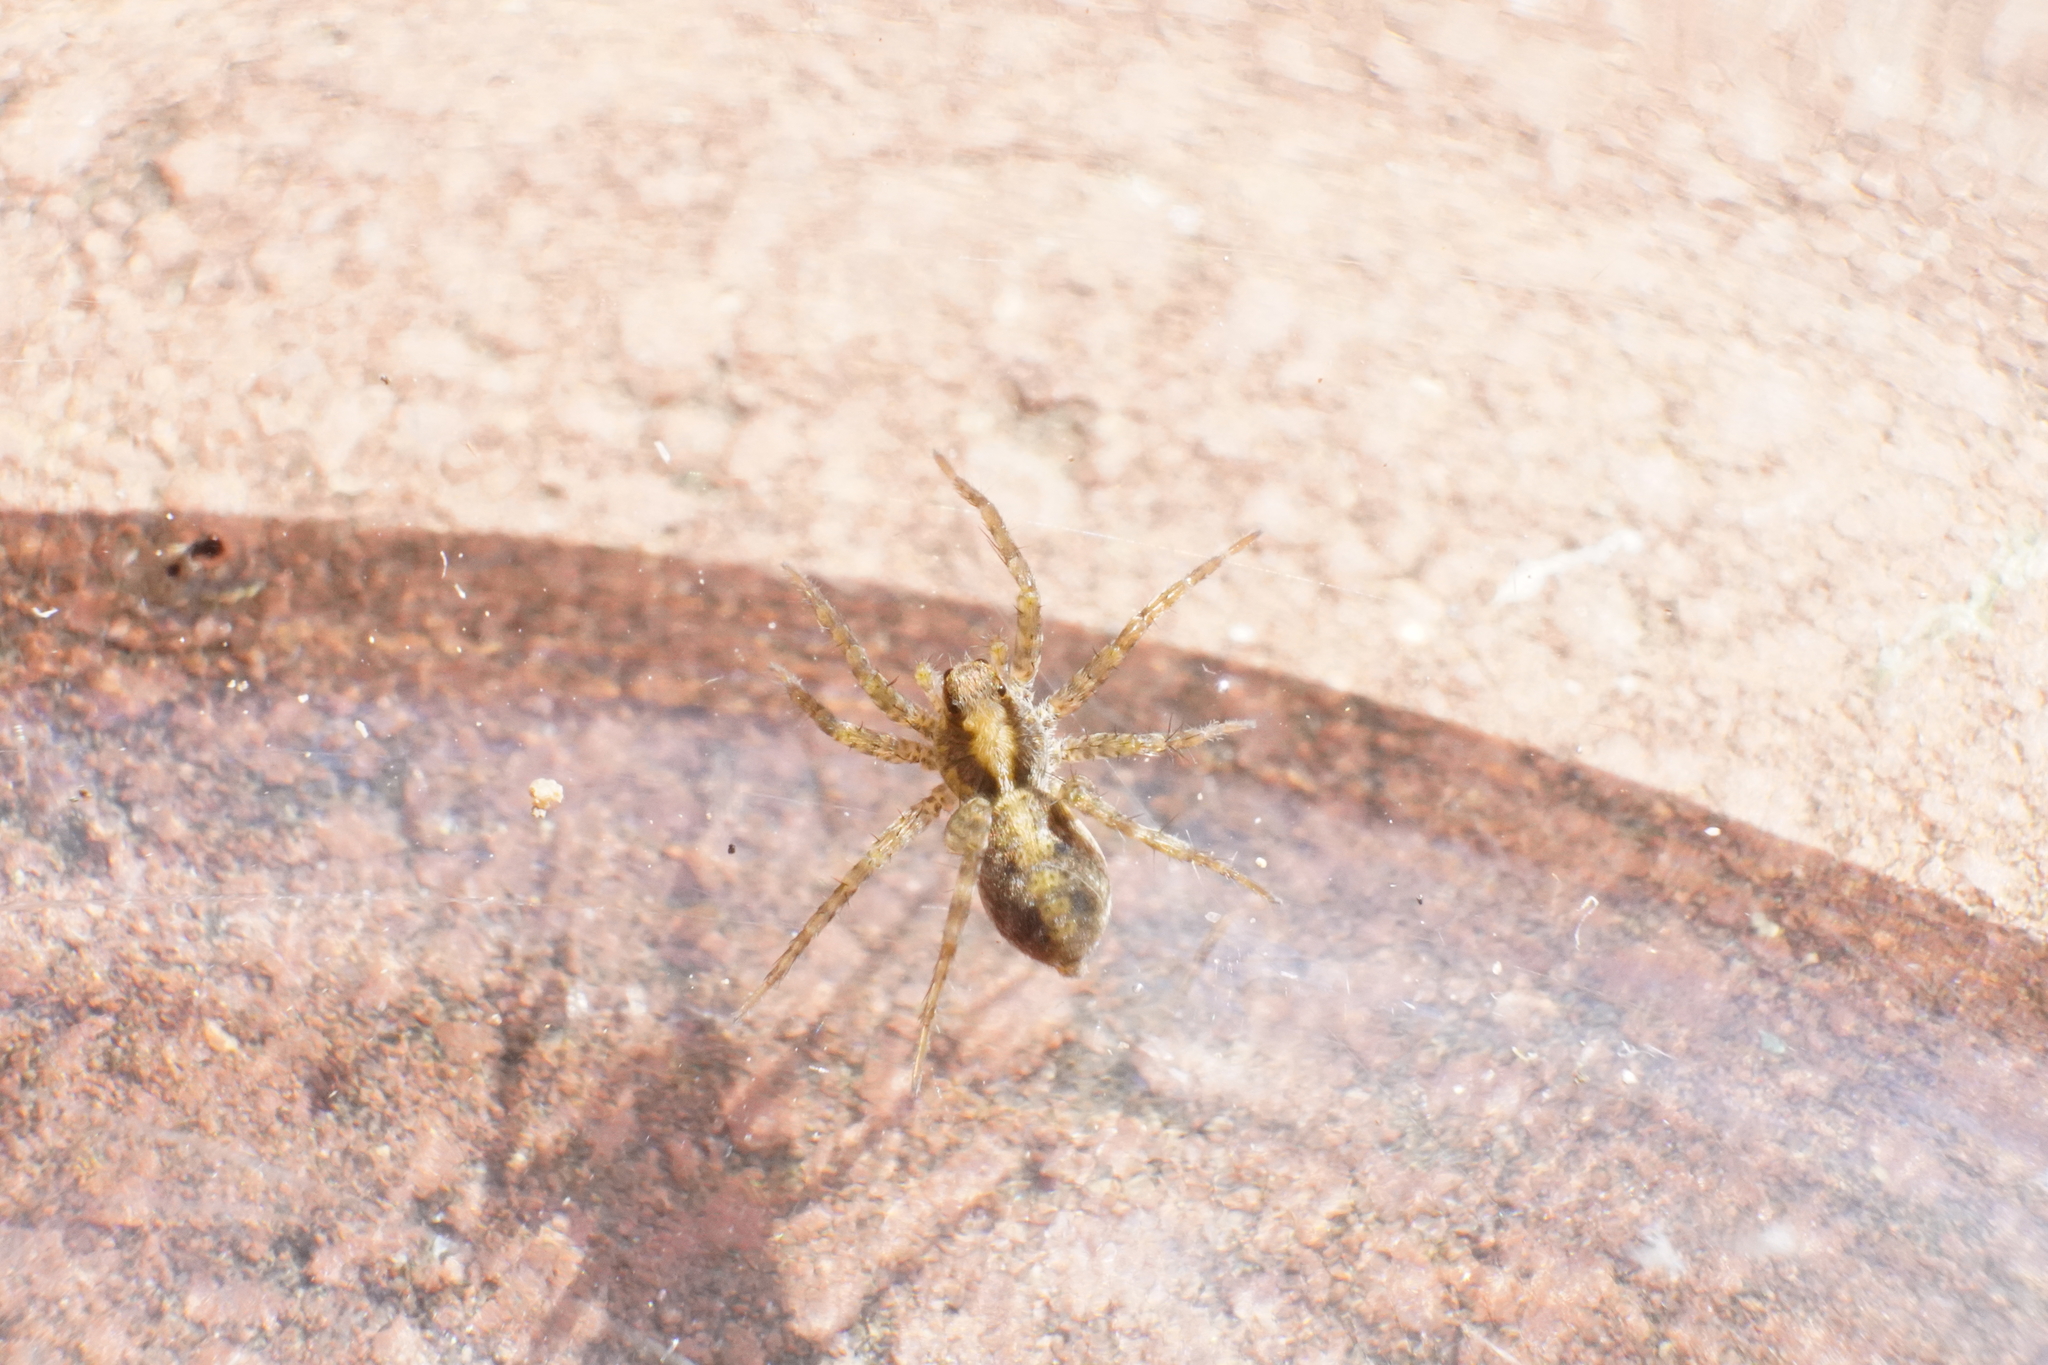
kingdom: Animalia
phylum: Arthropoda
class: Arachnida
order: Araneae
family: Lycosidae
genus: Pardosa
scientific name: Pardosa milvina
